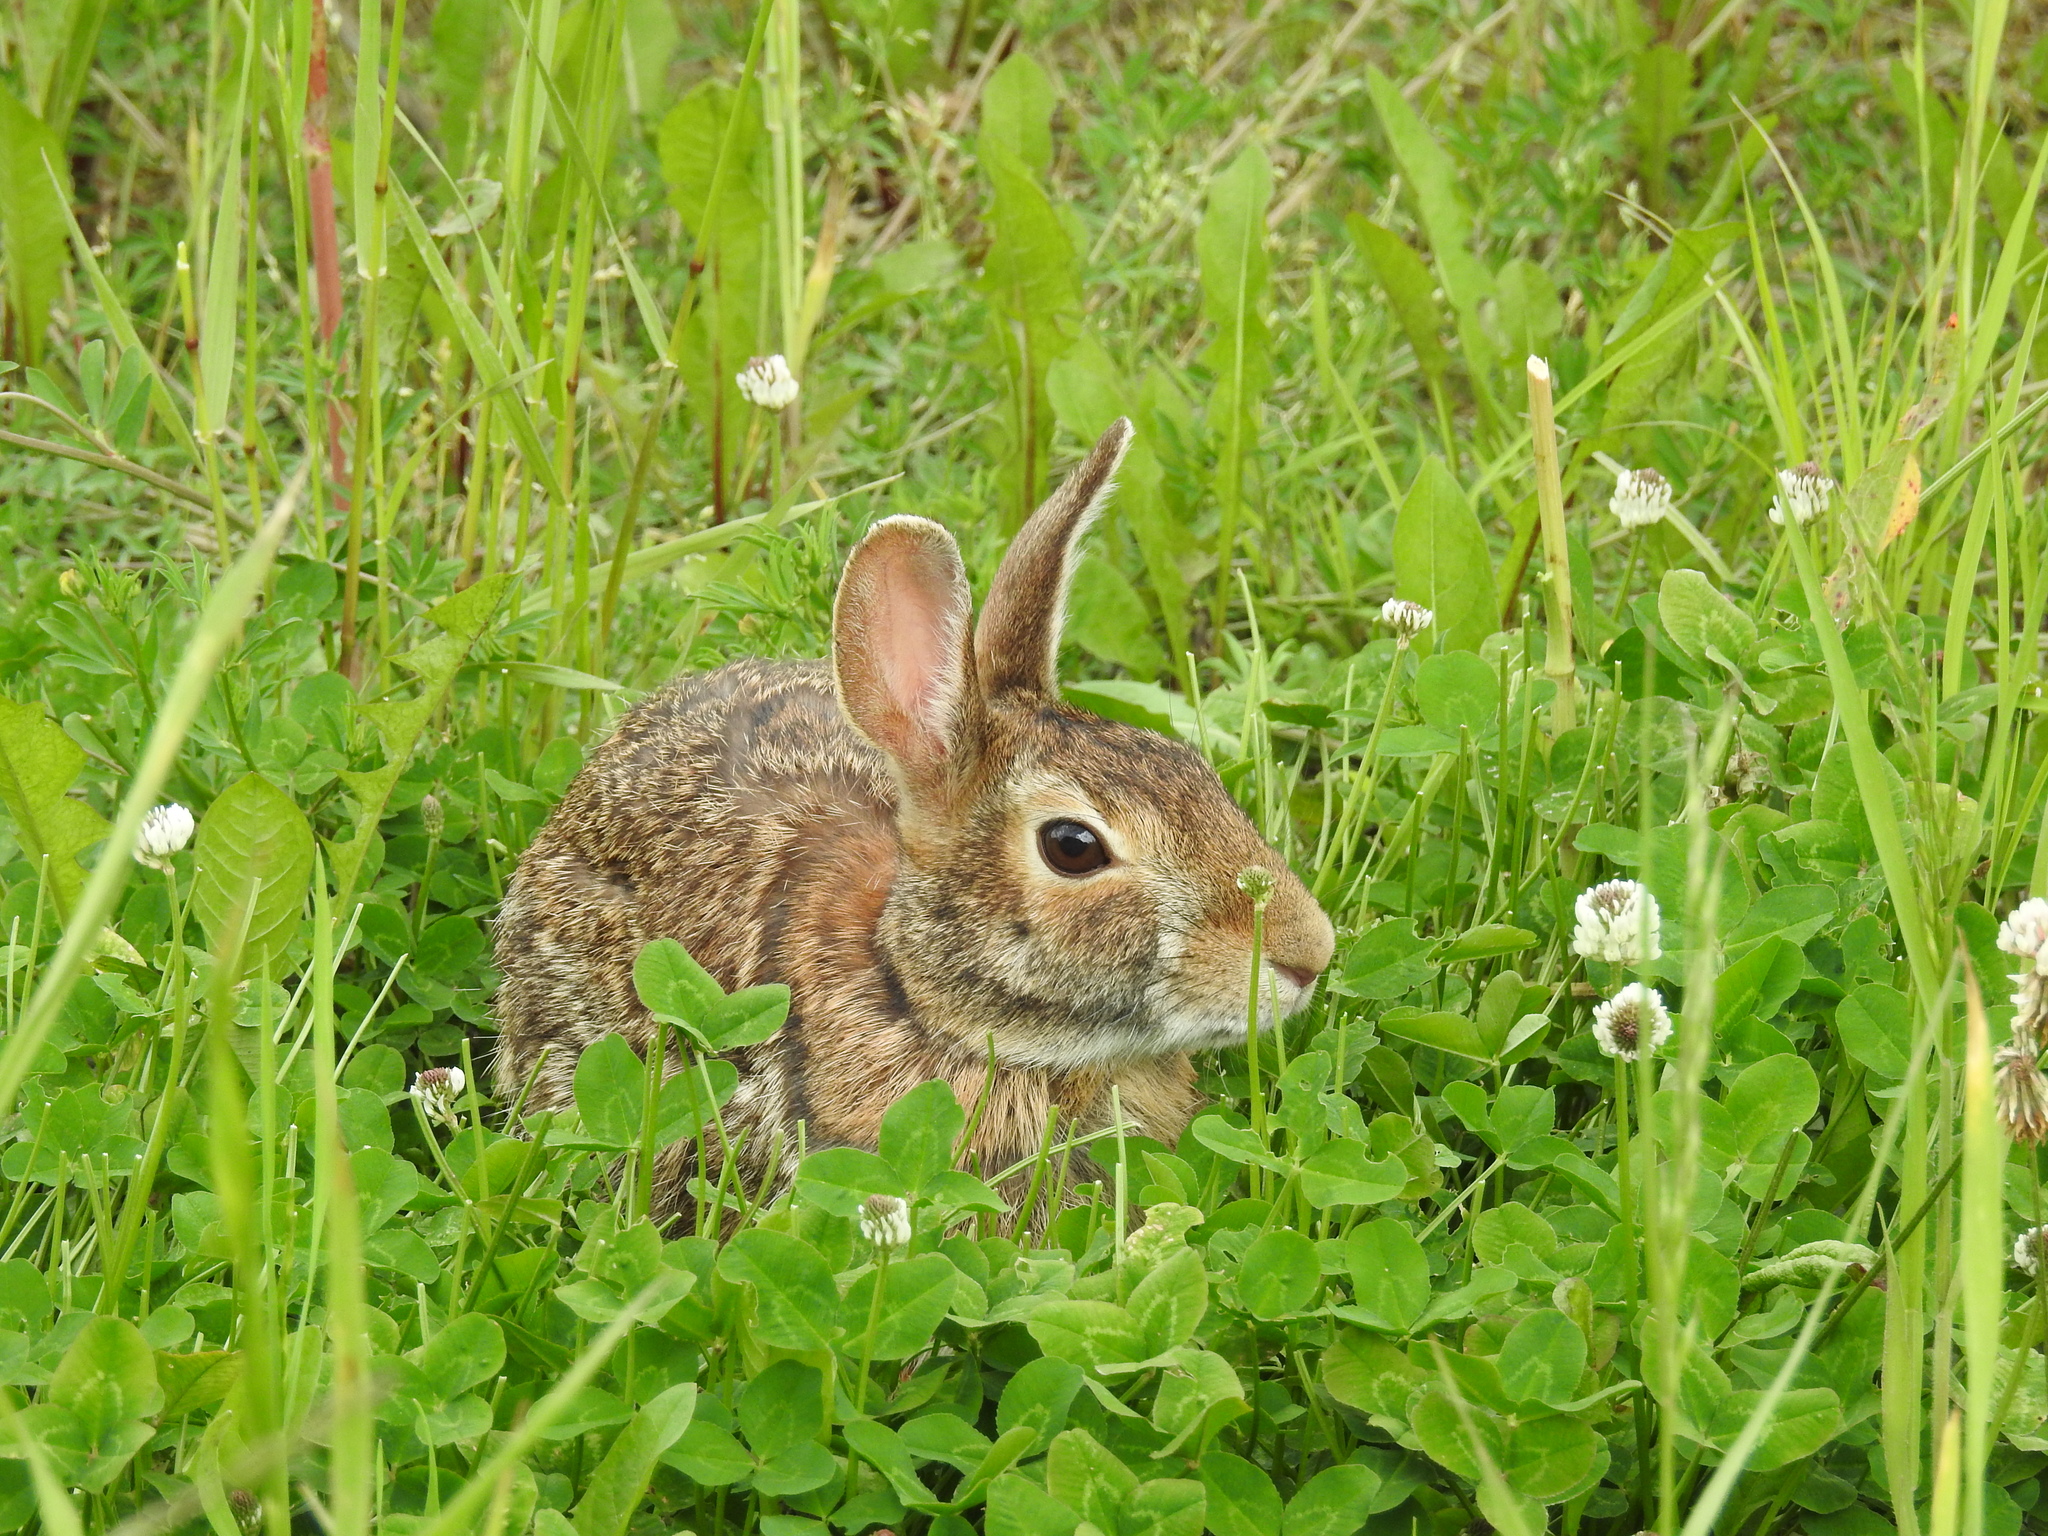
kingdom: Animalia
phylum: Chordata
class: Mammalia
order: Lagomorpha
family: Leporidae
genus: Sylvilagus
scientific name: Sylvilagus floridanus
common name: Eastern cottontail
